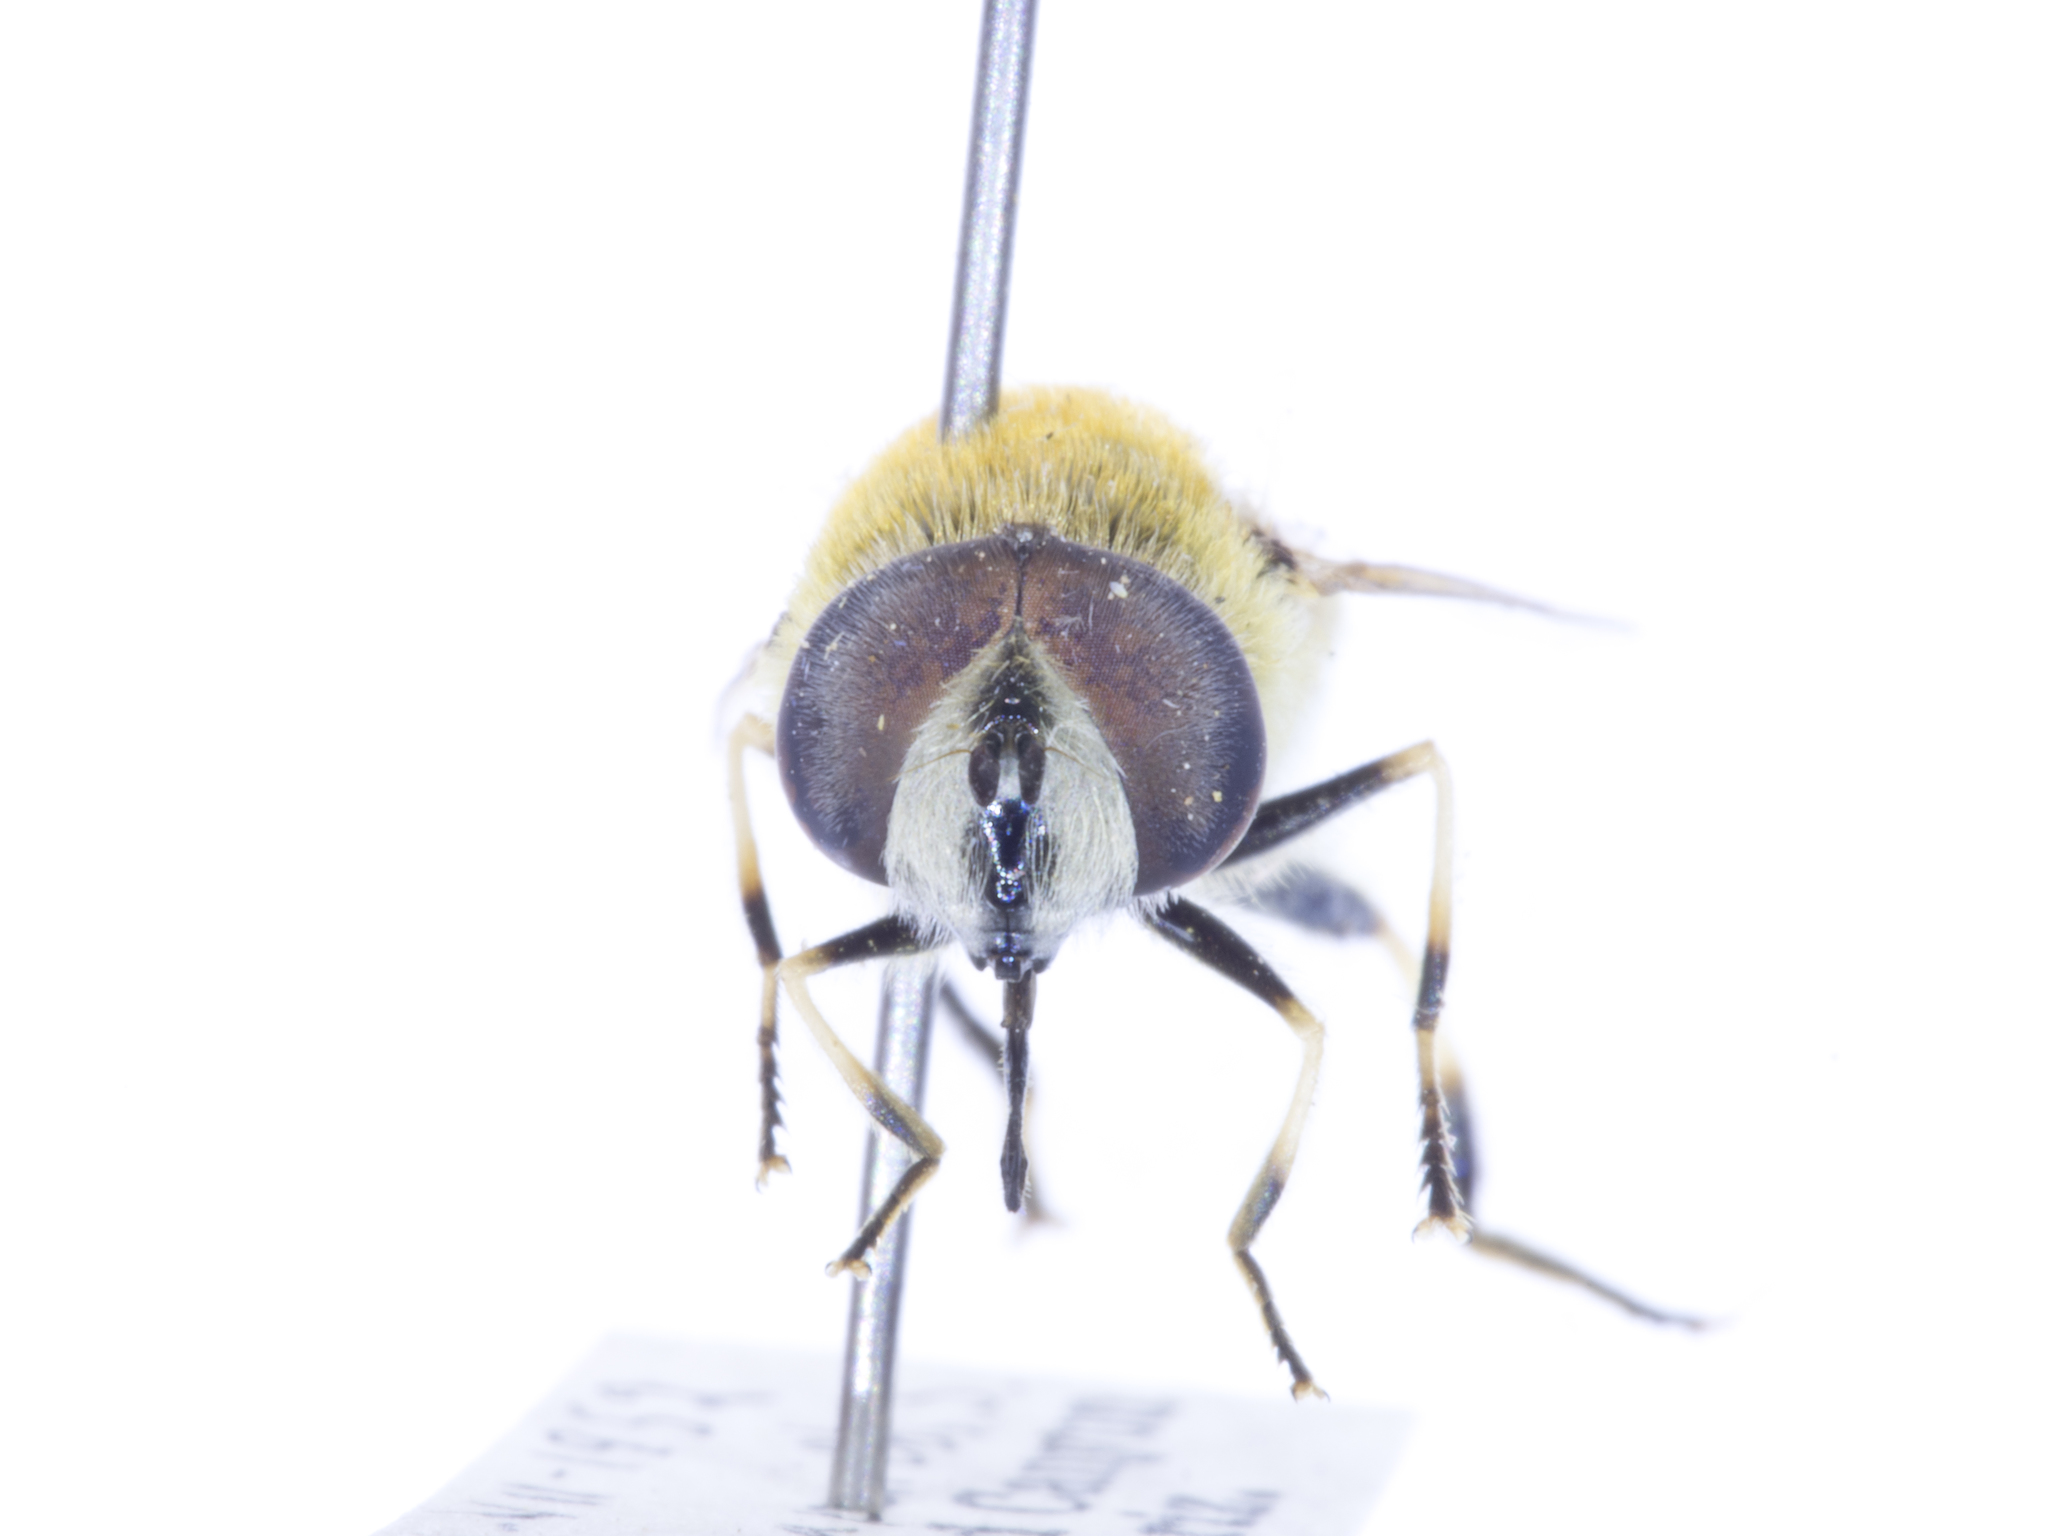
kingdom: Animalia
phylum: Arthropoda
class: Insecta
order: Diptera
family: Syrphidae
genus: Eristalis
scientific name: Eristalis stipator
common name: Yellow-shouldered drone fly
